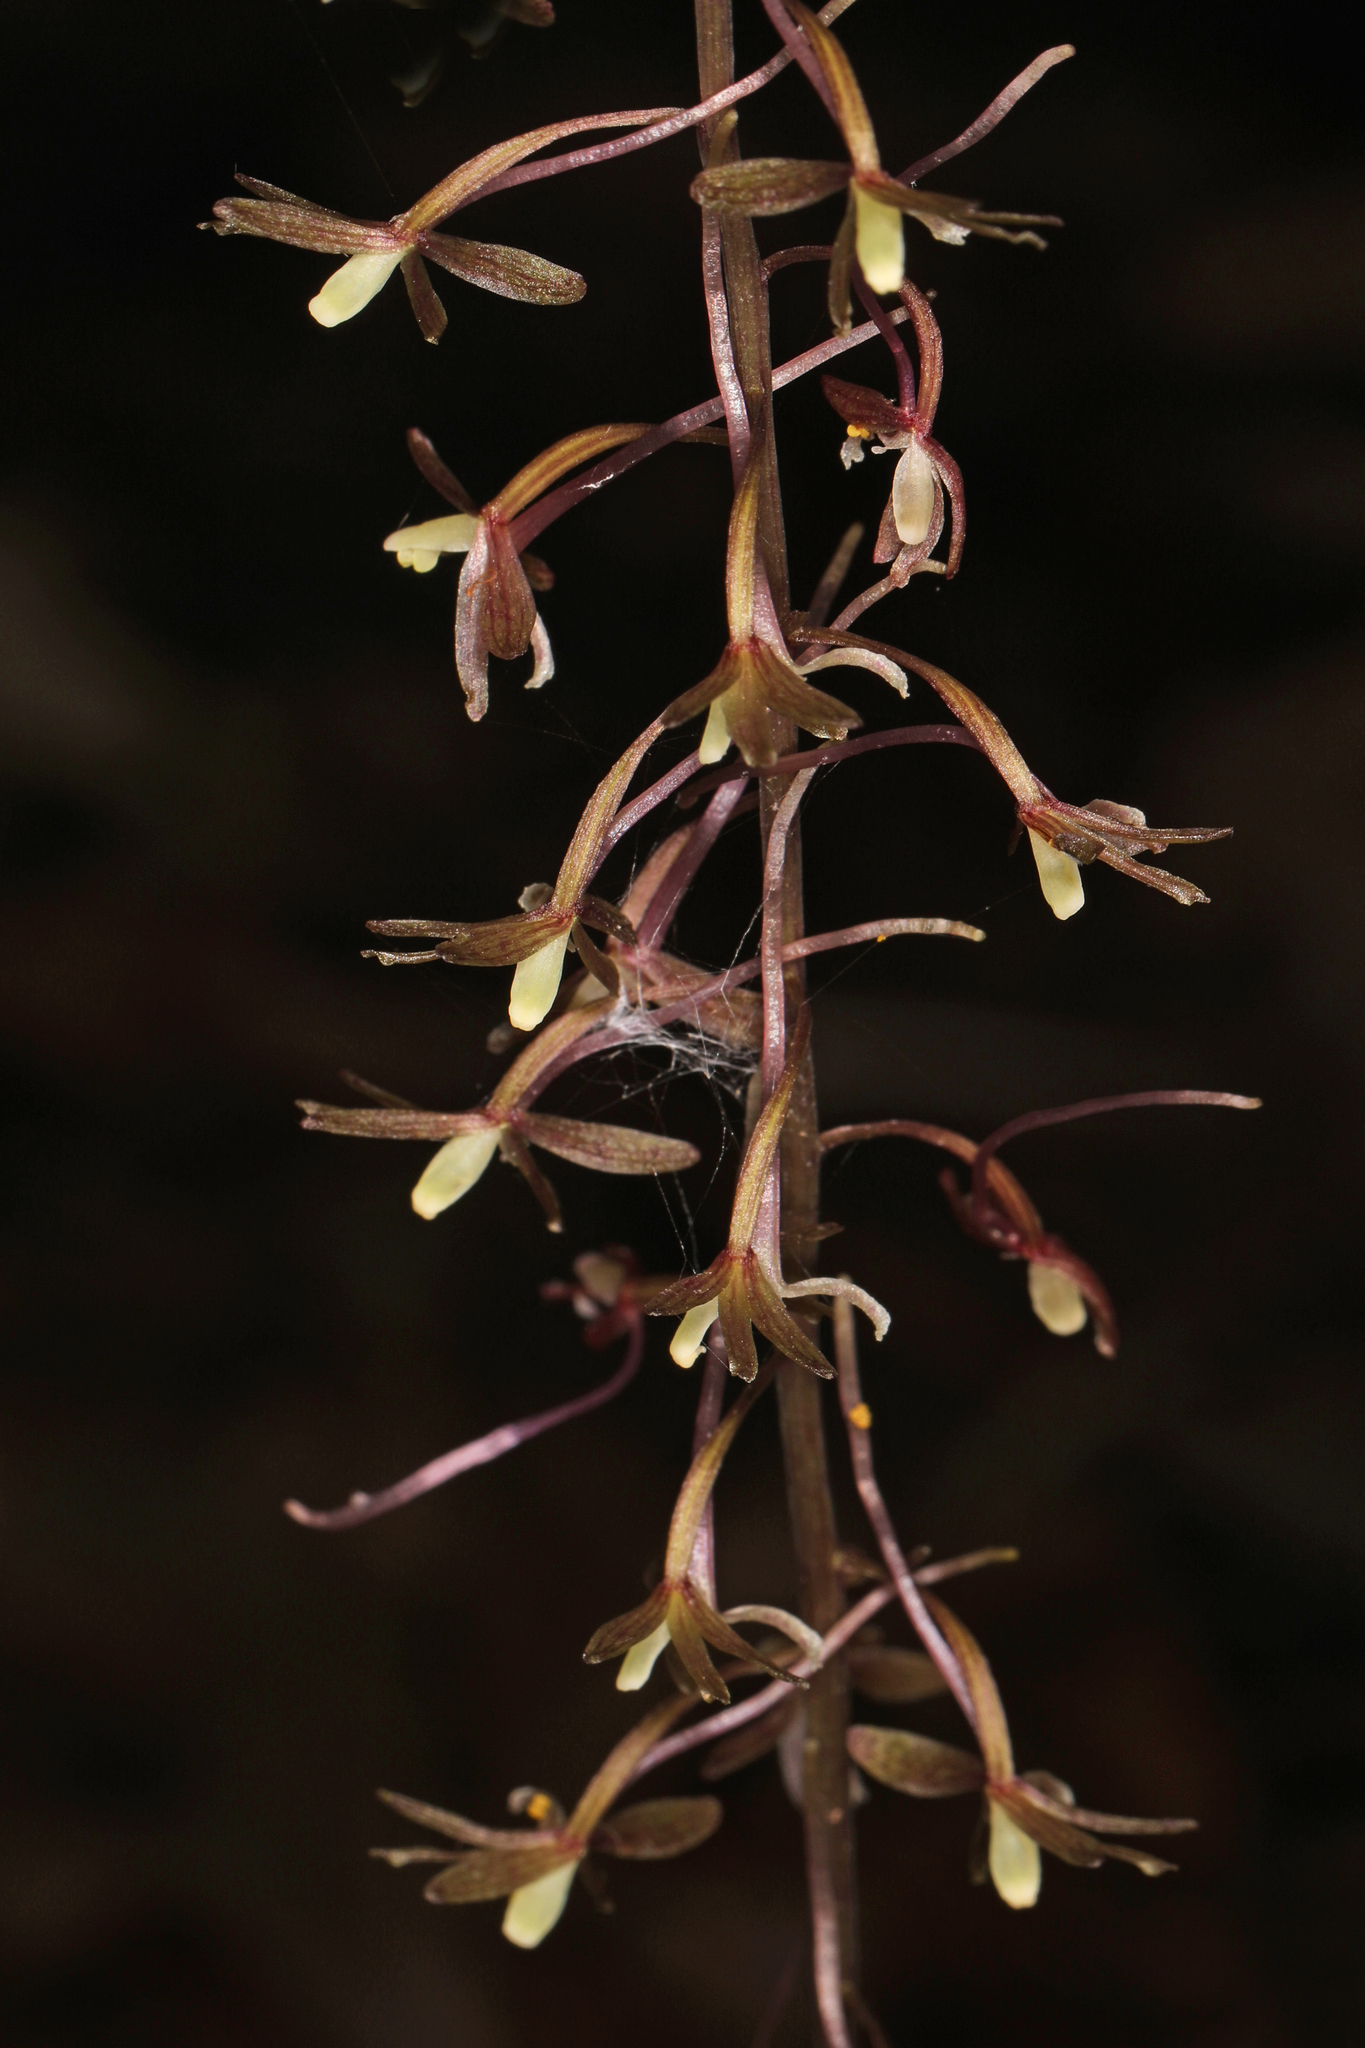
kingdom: Plantae
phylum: Tracheophyta
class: Liliopsida
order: Asparagales
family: Orchidaceae
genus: Tipularia
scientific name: Tipularia discolor
